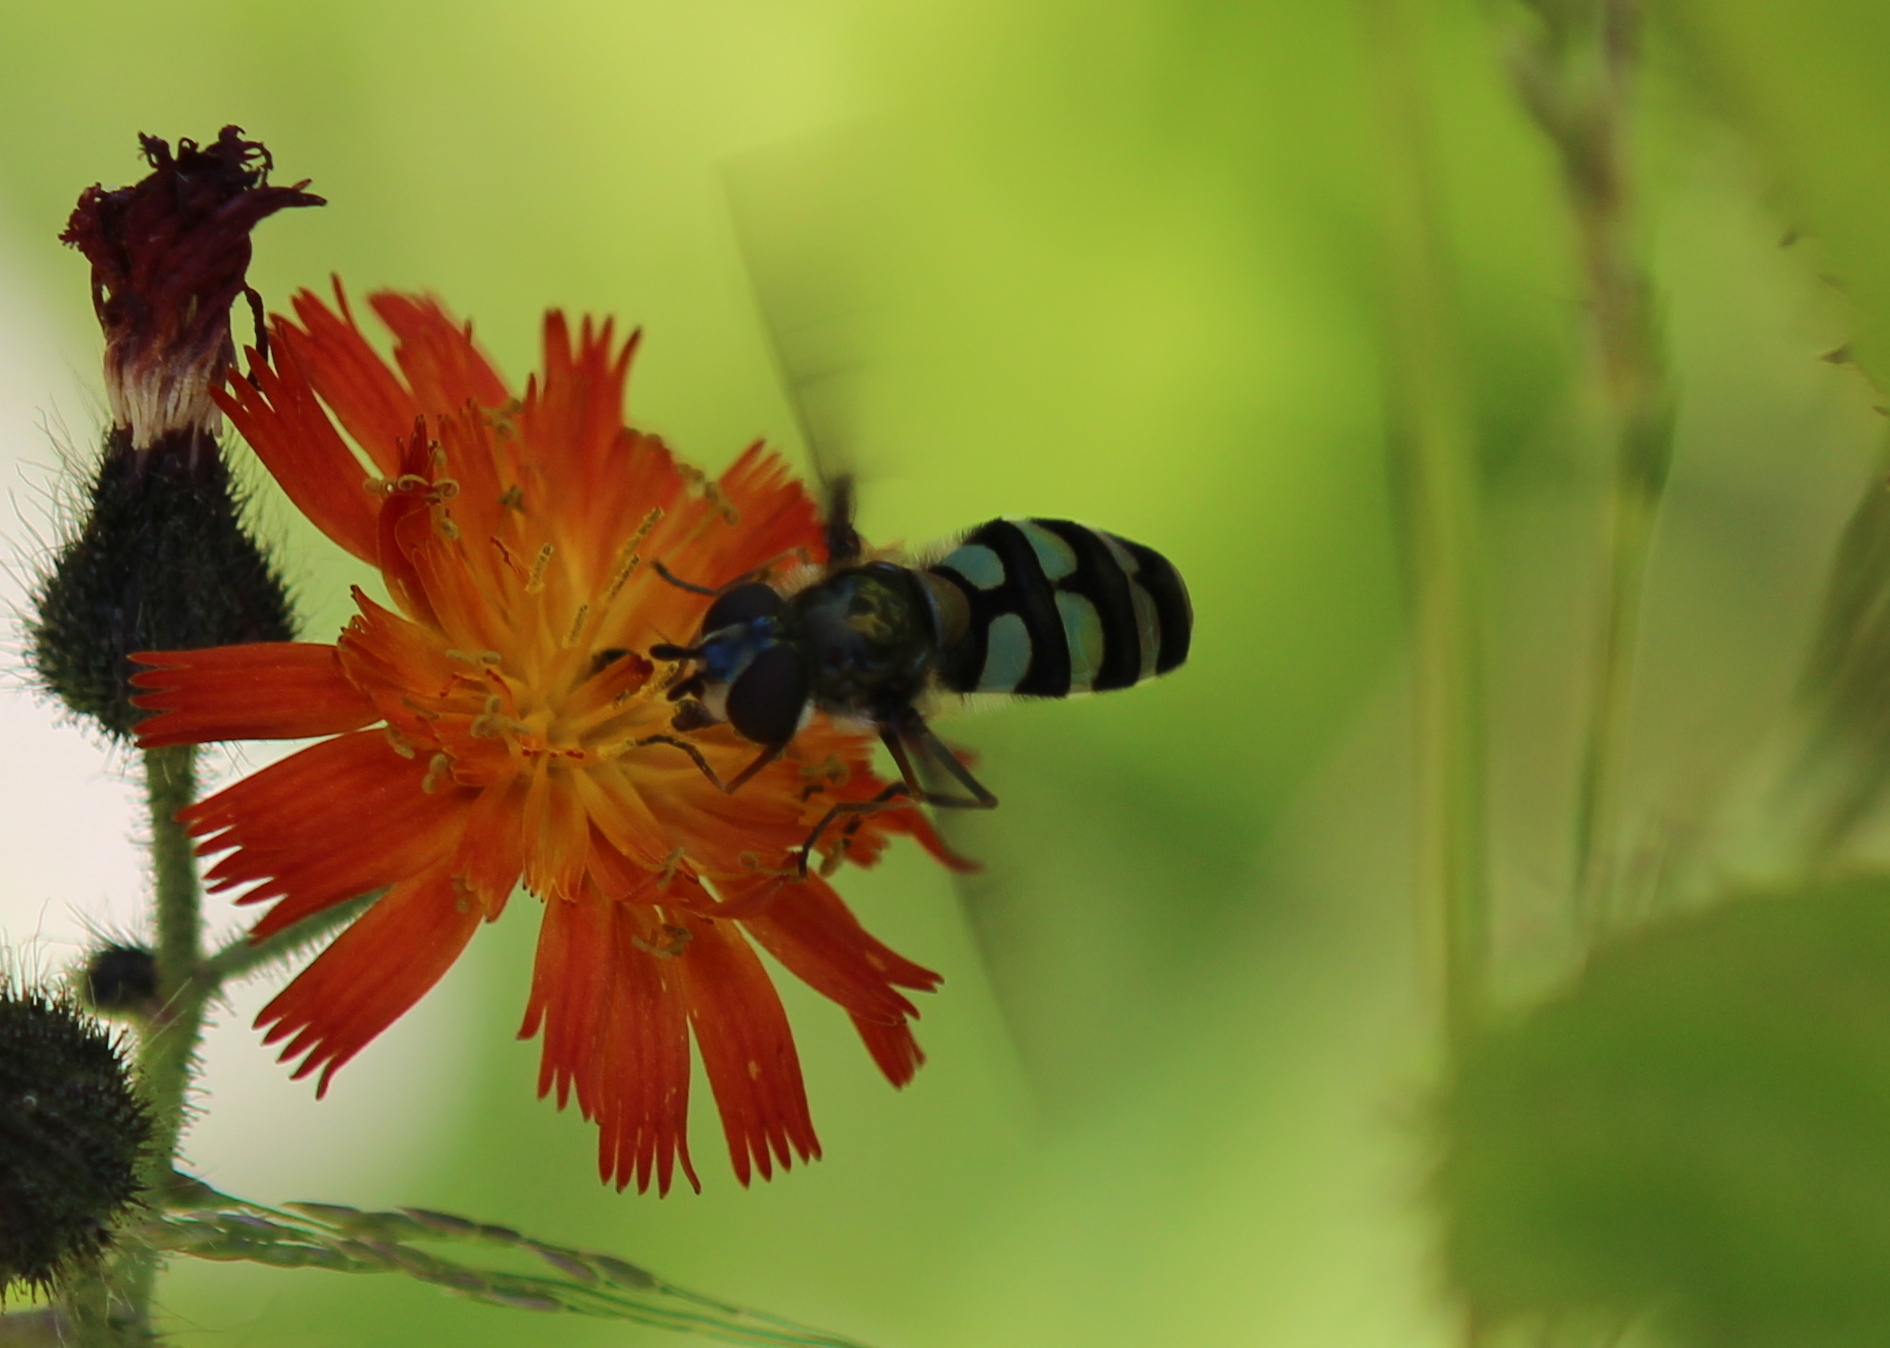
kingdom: Animalia
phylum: Arthropoda
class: Insecta
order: Diptera
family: Syrphidae
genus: Megasyrphus
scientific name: Megasyrphus laxus
